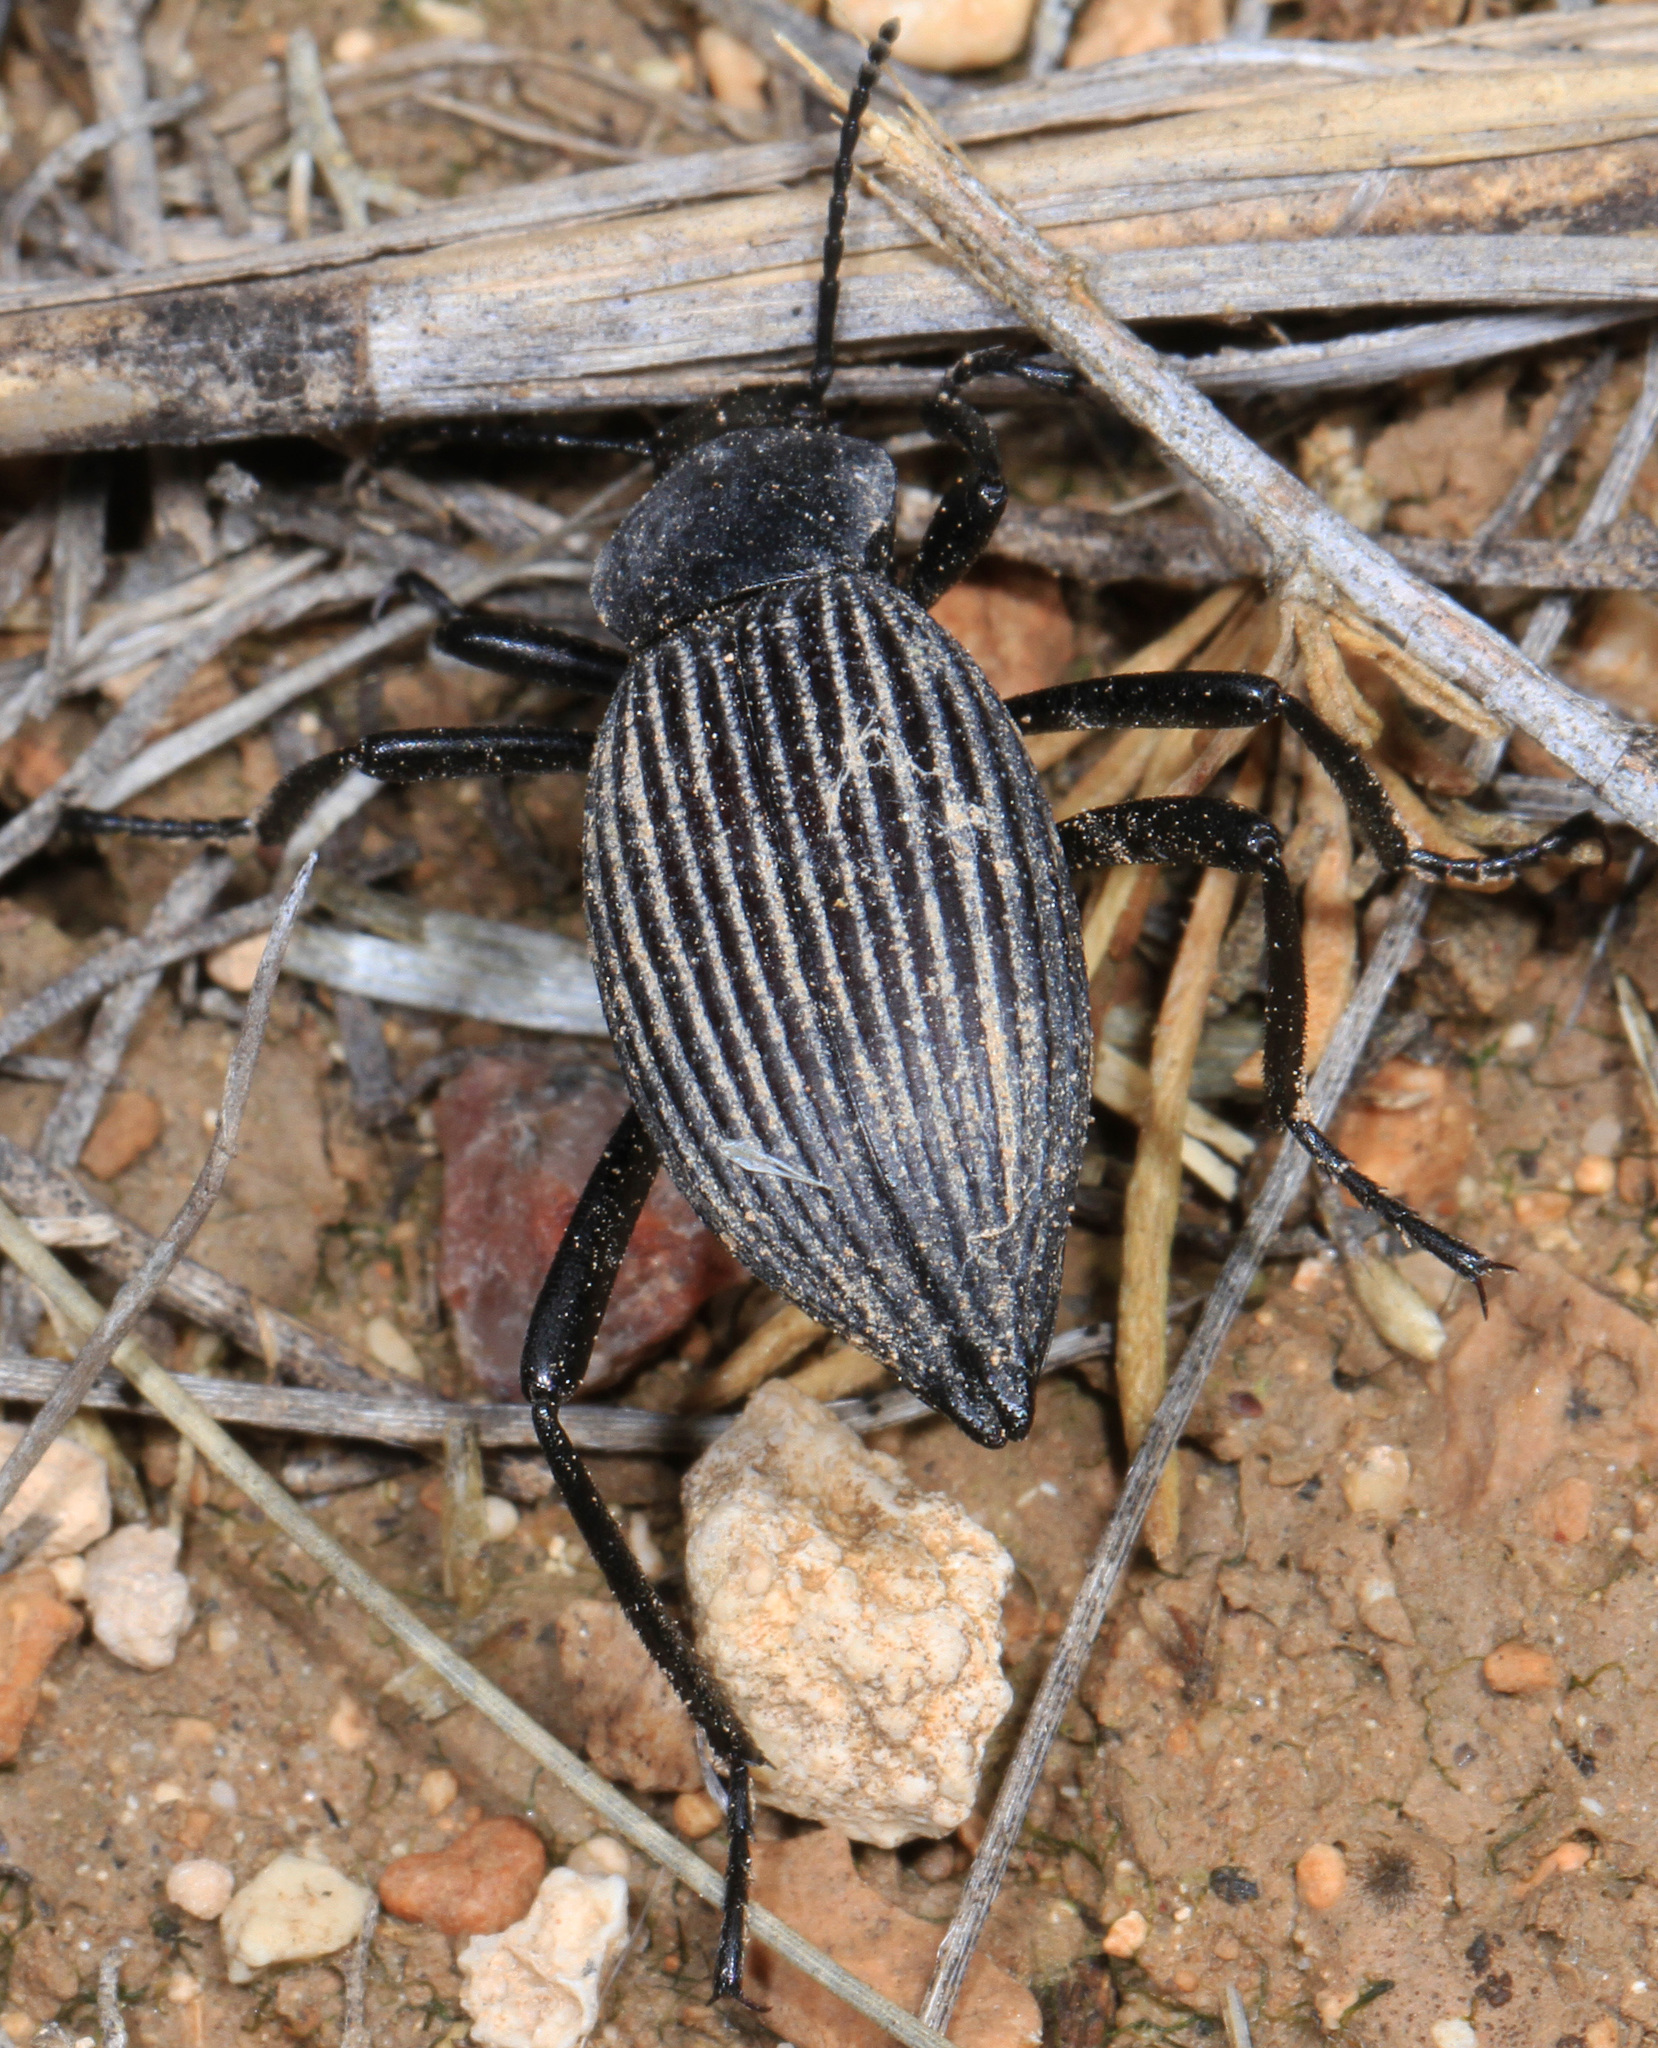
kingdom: Animalia
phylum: Arthropoda
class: Insecta
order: Coleoptera
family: Tenebrionidae
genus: Eleodes
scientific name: Eleodes hispilabris
